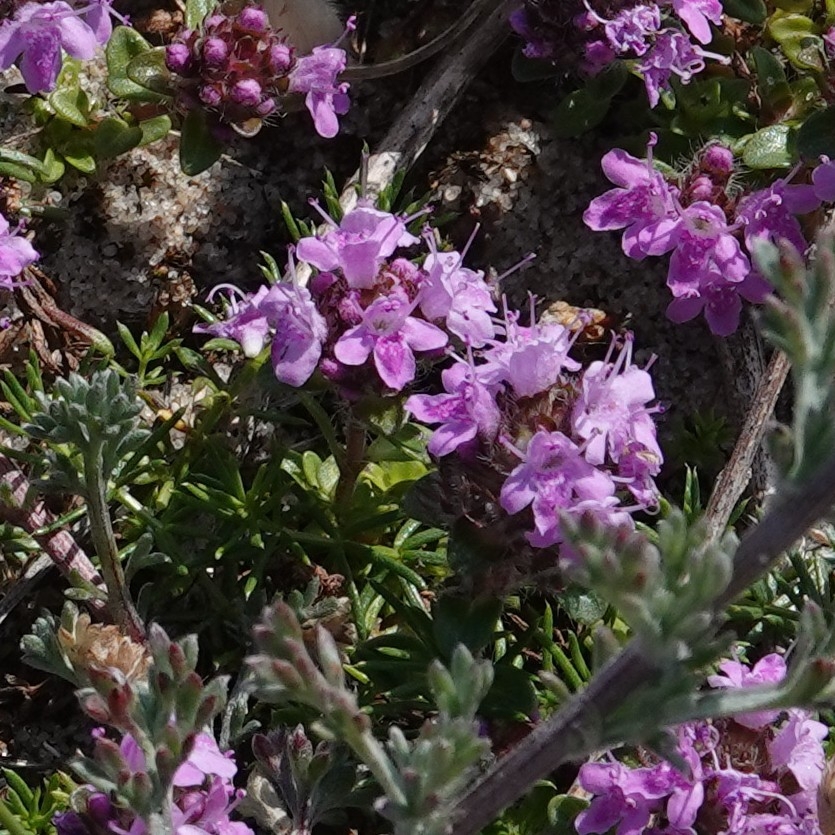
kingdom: Plantae
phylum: Tracheophyta
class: Magnoliopsida
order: Lamiales
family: Lamiaceae
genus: Thymus
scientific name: Thymus praecox
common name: Wild thyme
